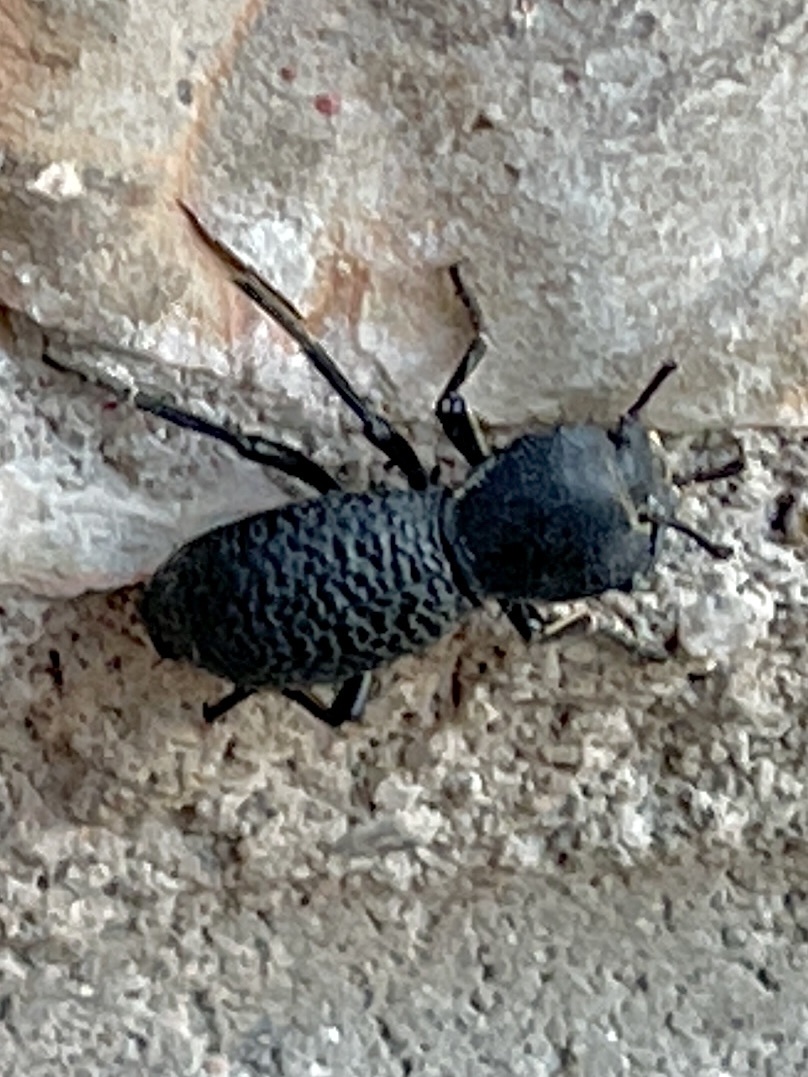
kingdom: Animalia
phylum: Arthropoda
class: Insecta
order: Coleoptera
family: Zopheridae
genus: Zopherus
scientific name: Zopherus concolor
